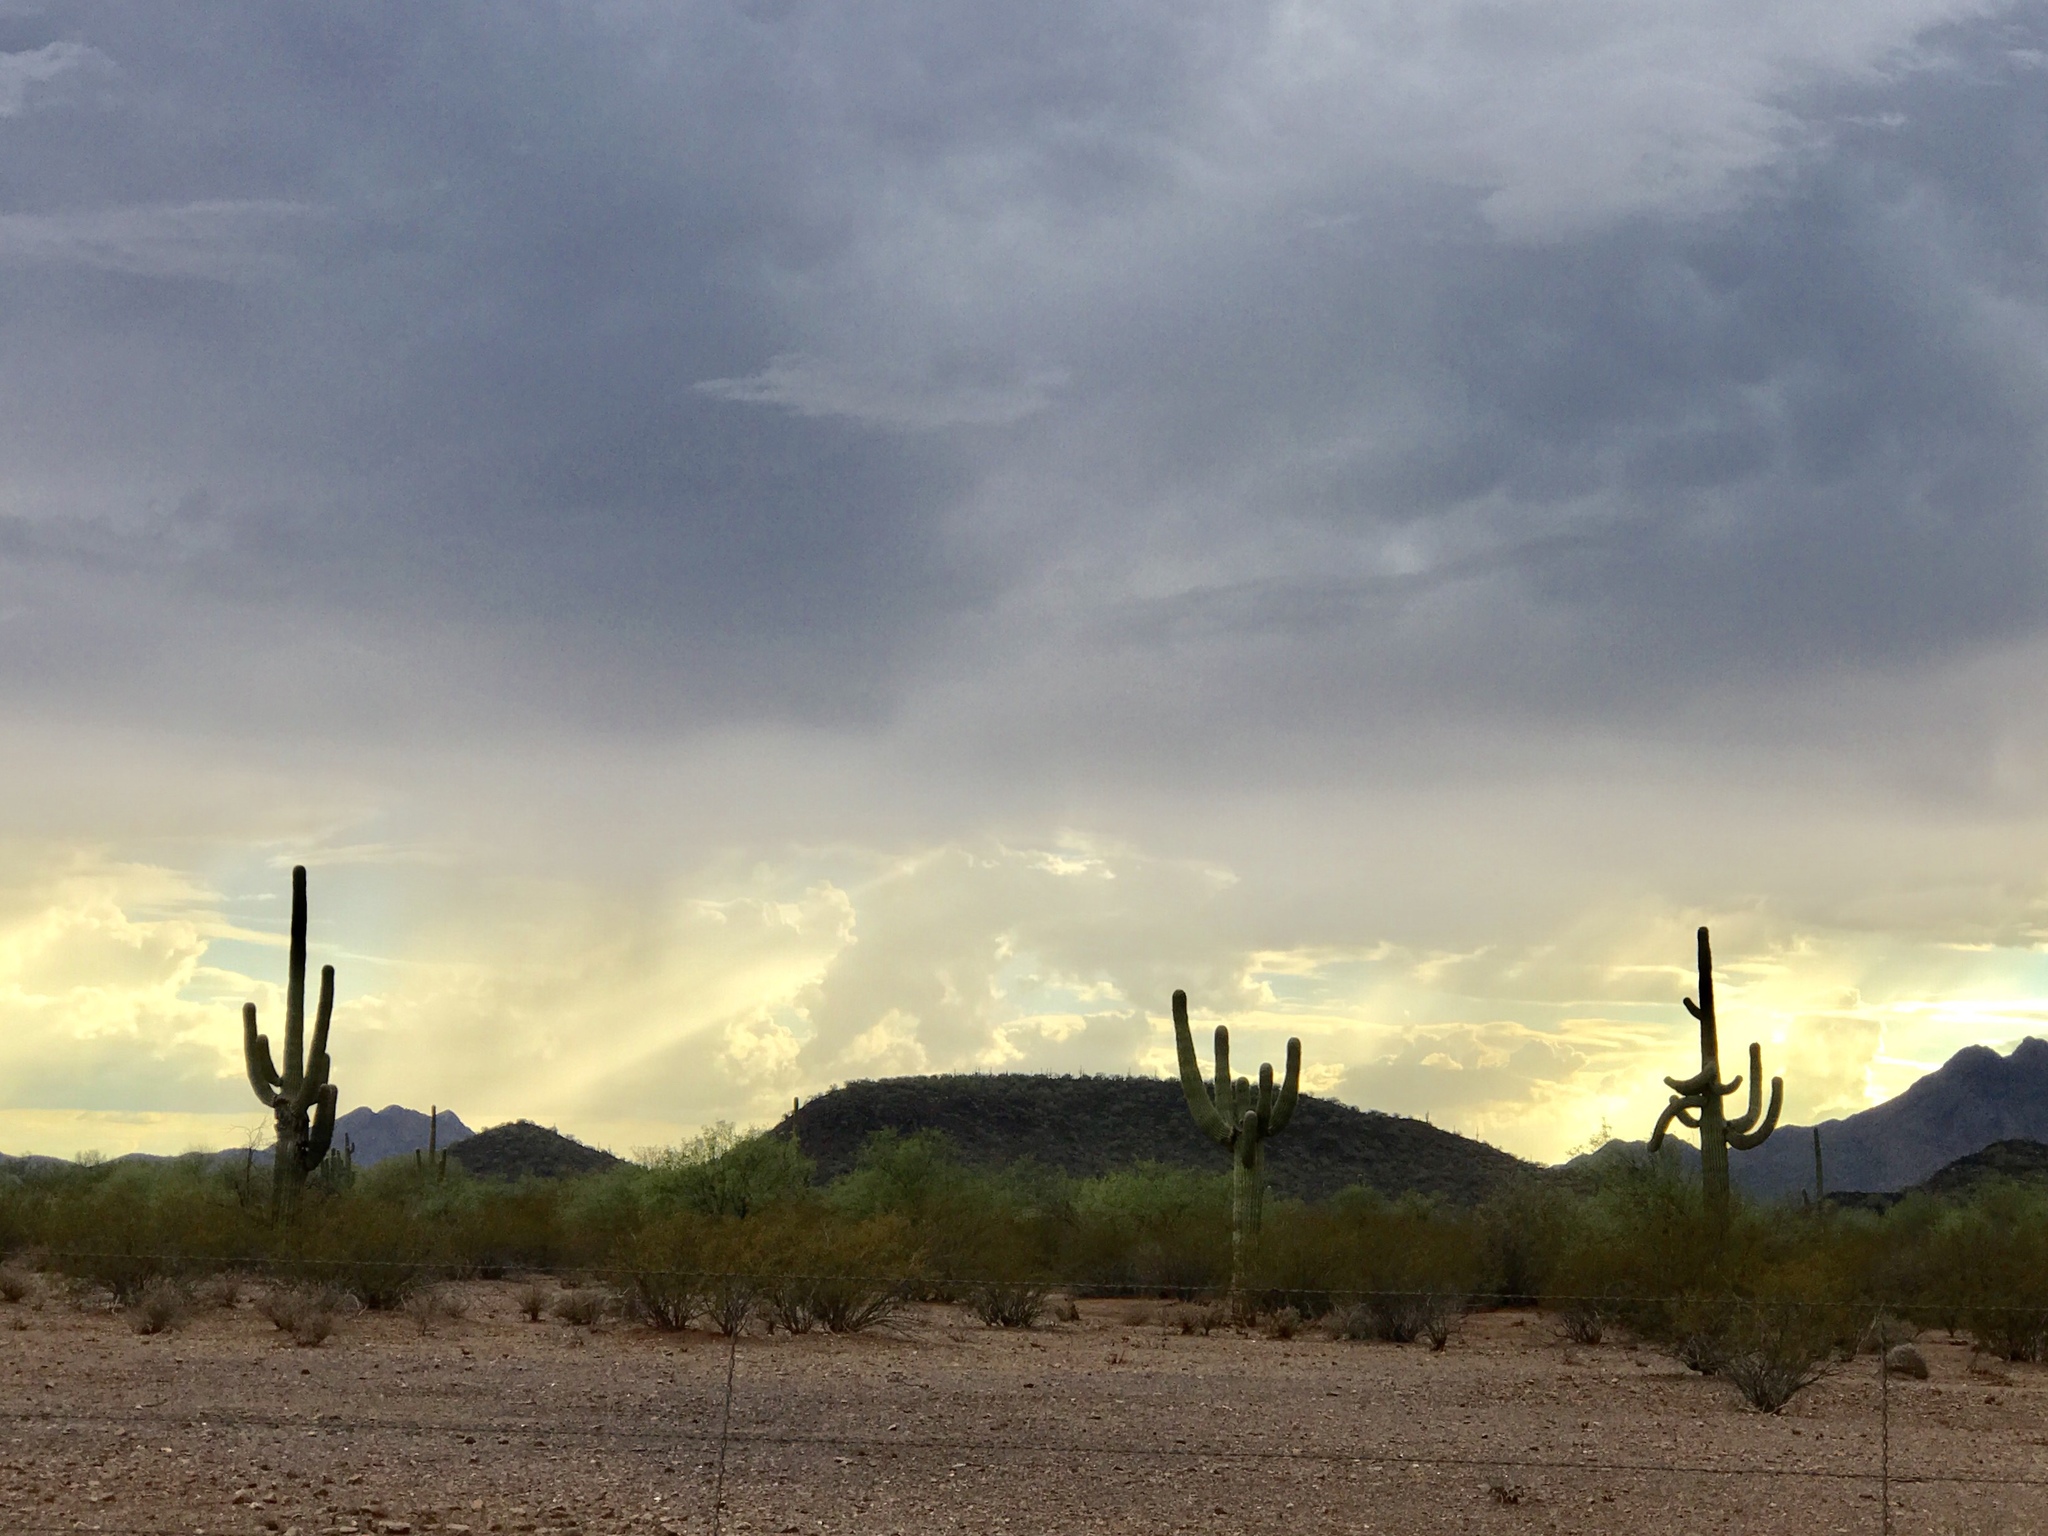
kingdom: Plantae
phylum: Tracheophyta
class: Magnoliopsida
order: Caryophyllales
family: Cactaceae
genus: Carnegiea
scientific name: Carnegiea gigantea
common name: Saguaro
